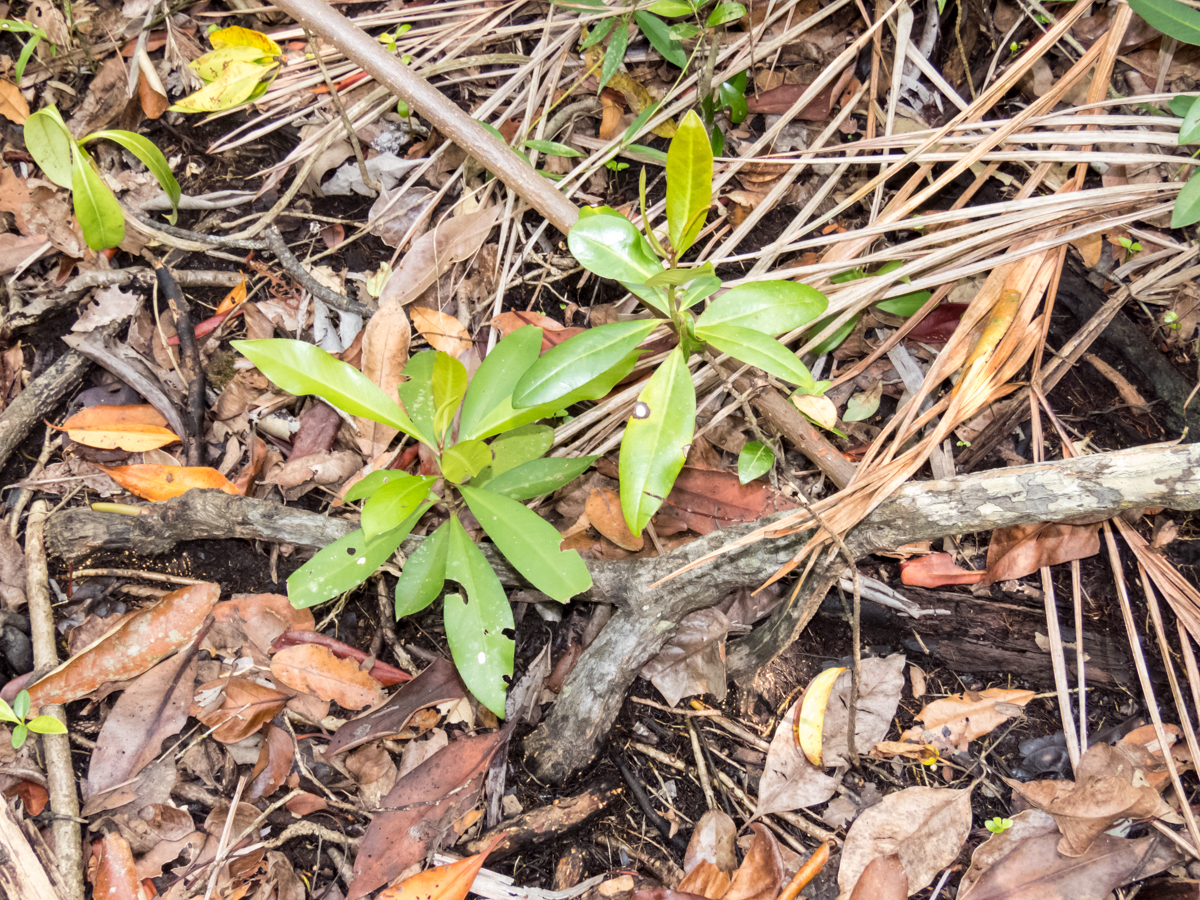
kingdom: Plantae
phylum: Tracheophyta
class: Magnoliopsida
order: Malpighiales
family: Rhizophoraceae
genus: Rhizophora
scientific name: Rhizophora apiculata
